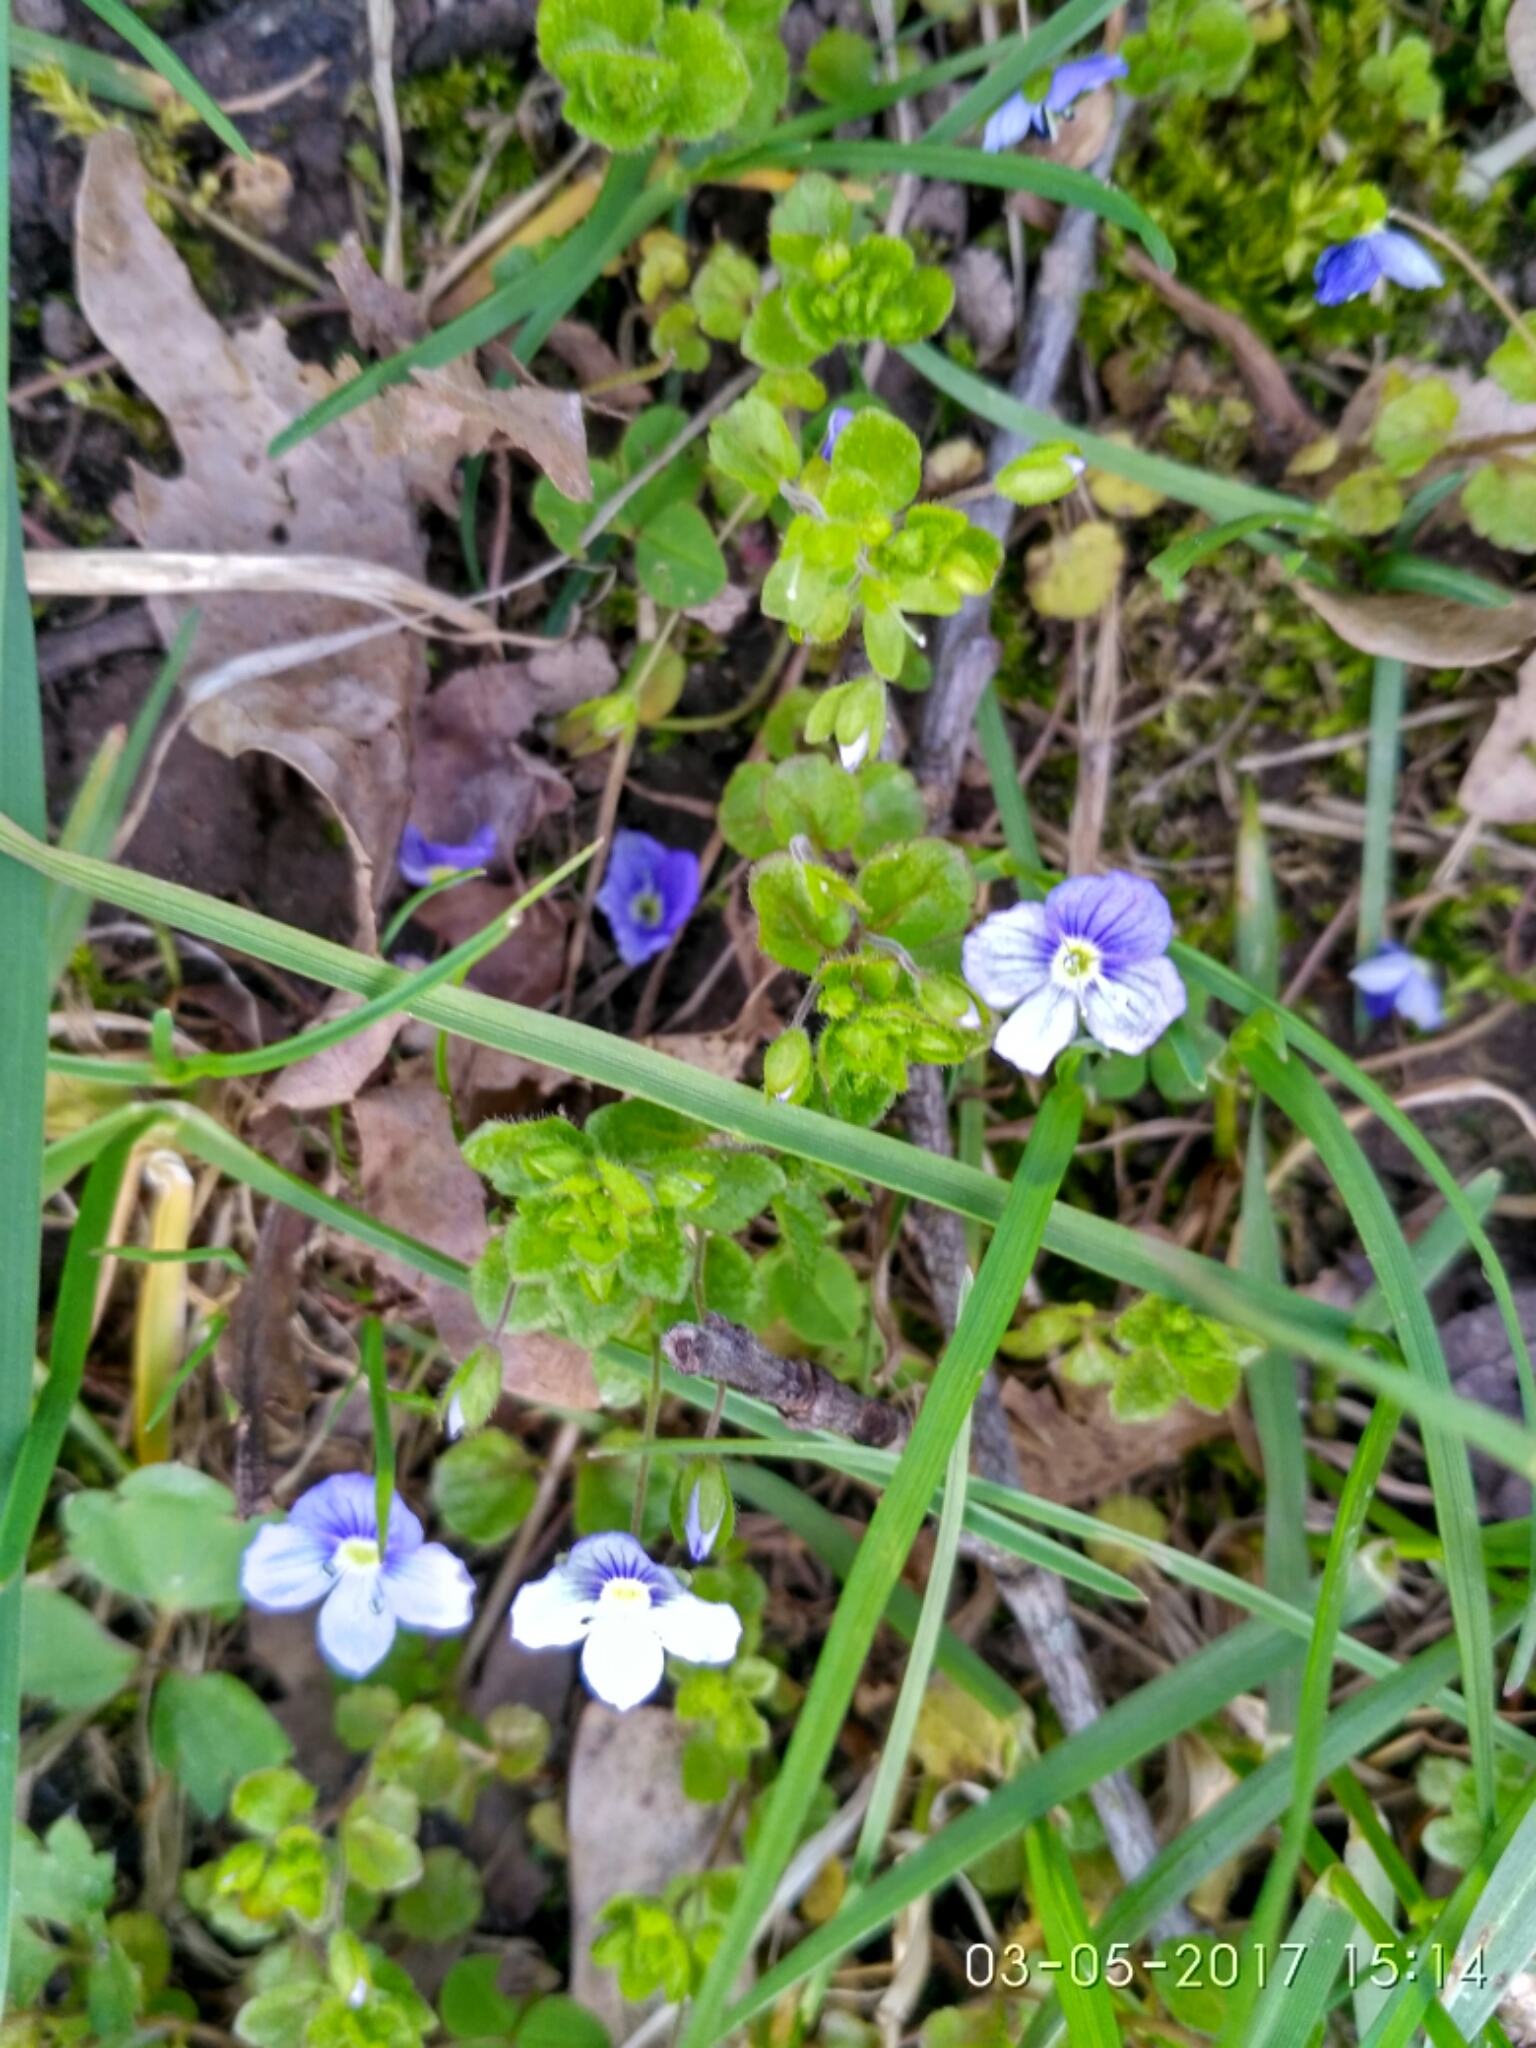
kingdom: Plantae
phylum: Tracheophyta
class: Magnoliopsida
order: Lamiales
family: Plantaginaceae
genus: Veronica
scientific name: Veronica filiformis
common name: Slender speedwell
